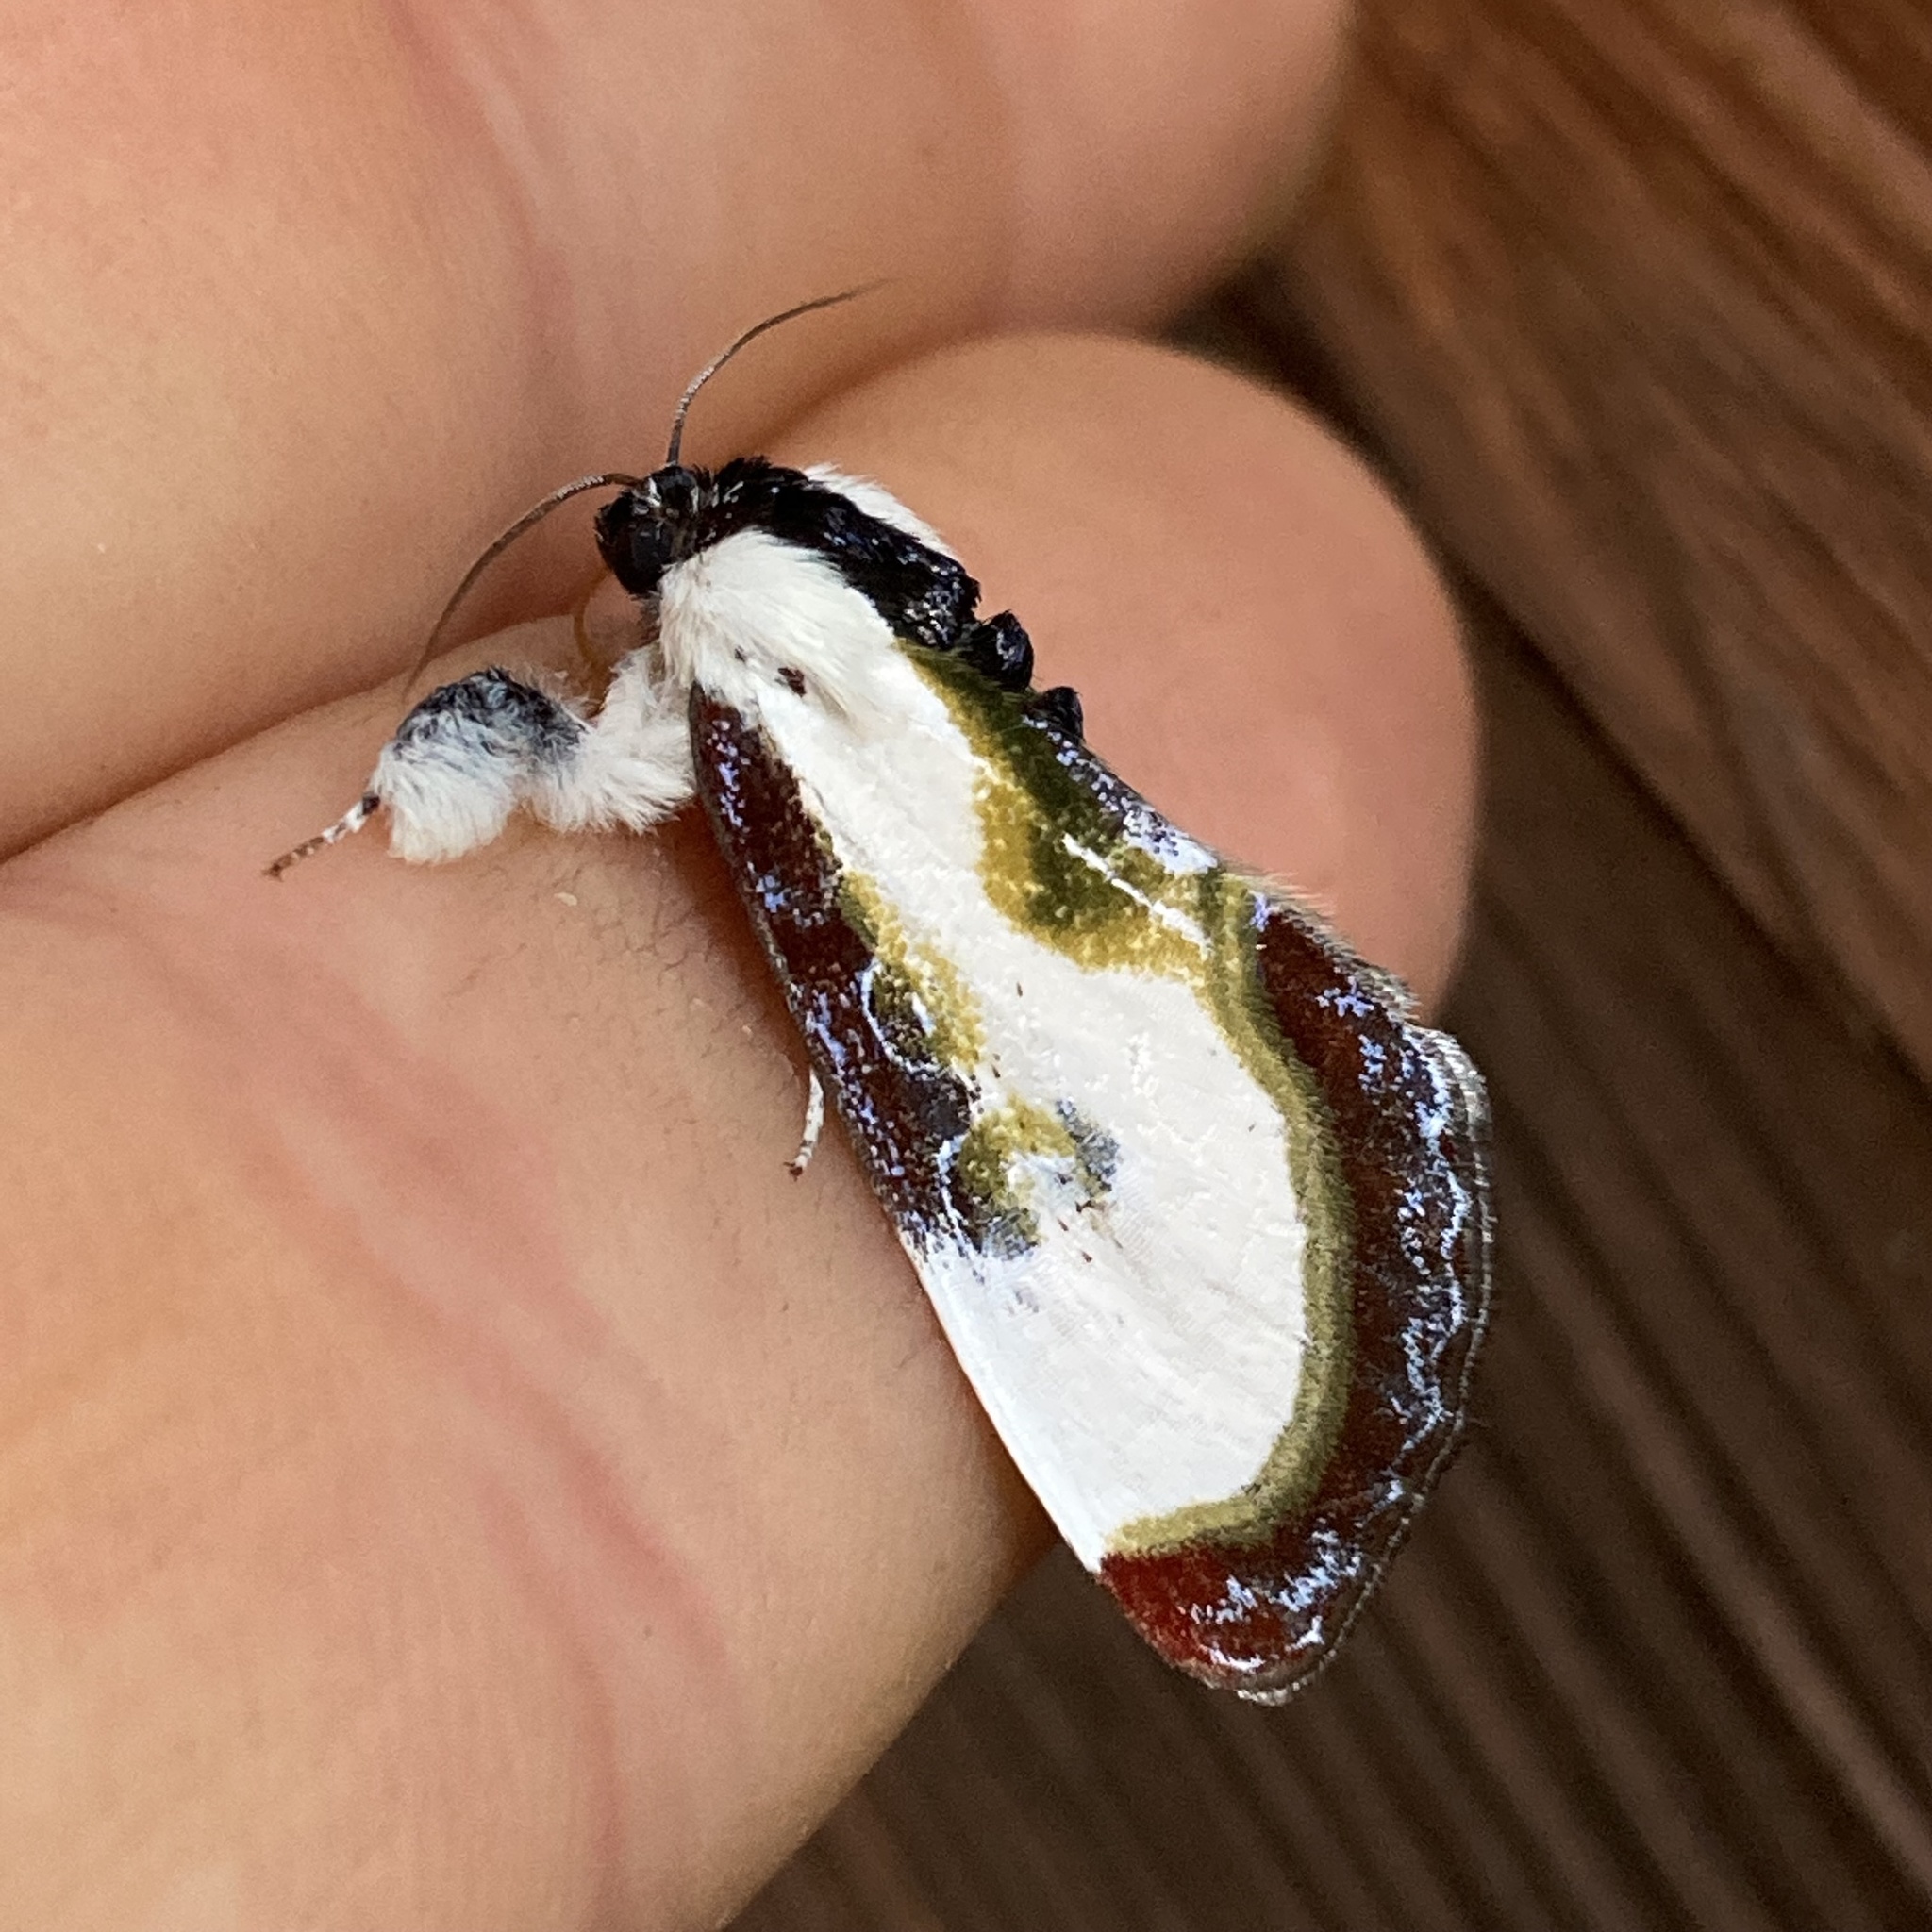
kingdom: Animalia
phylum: Arthropoda
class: Insecta
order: Lepidoptera
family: Noctuidae
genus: Eudryas
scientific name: Eudryas grata
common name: Beautiful wood-nymph
